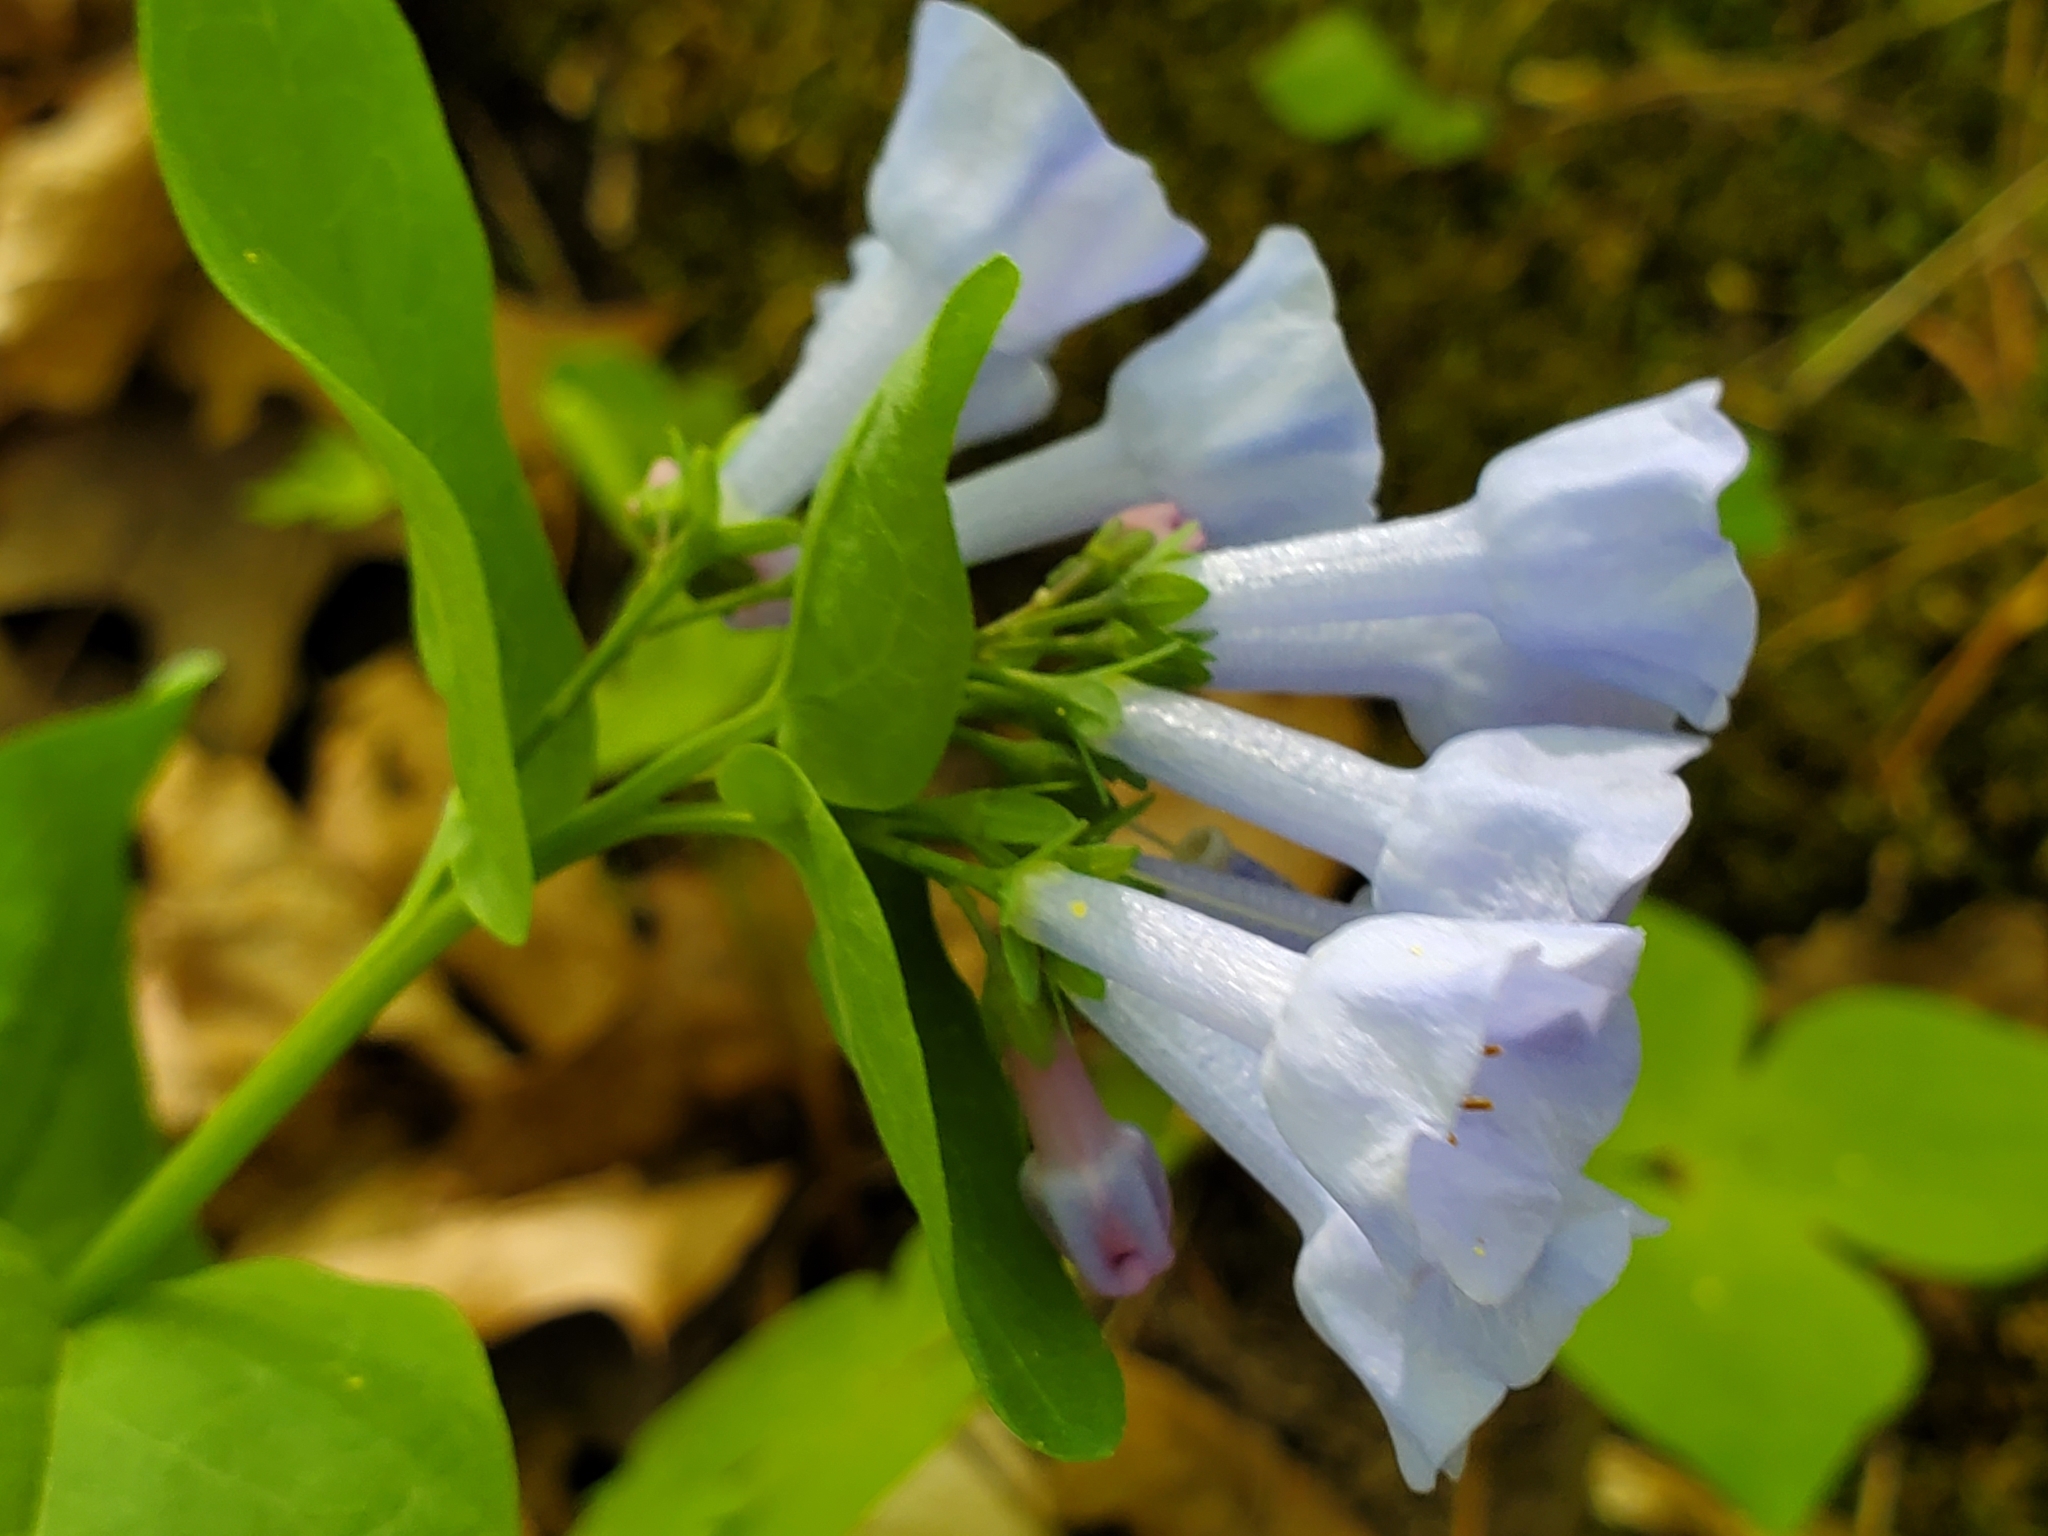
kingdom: Plantae
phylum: Tracheophyta
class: Magnoliopsida
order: Boraginales
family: Boraginaceae
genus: Mertensia
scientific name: Mertensia virginica
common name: Virginia bluebells
